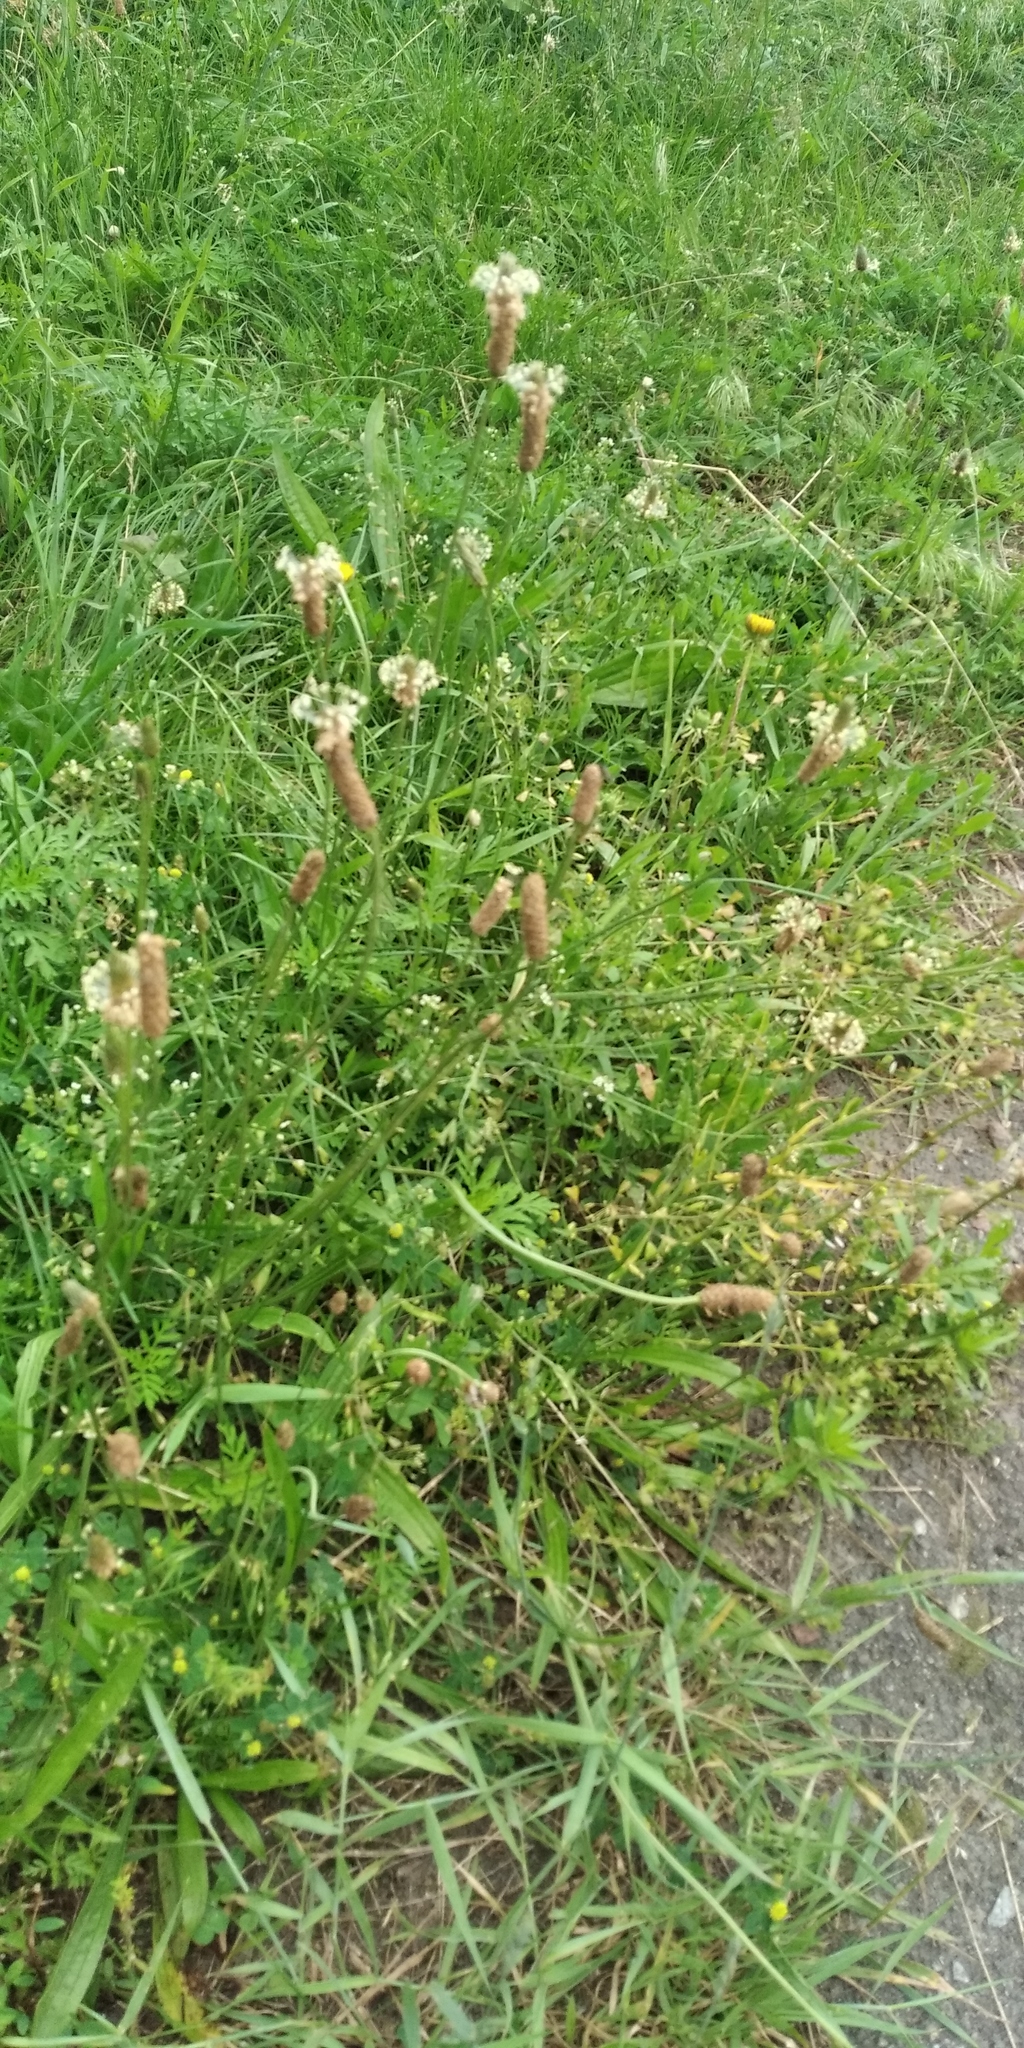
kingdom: Plantae
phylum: Tracheophyta
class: Magnoliopsida
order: Lamiales
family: Plantaginaceae
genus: Plantago
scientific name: Plantago lanceolata
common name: Ribwort plantain
